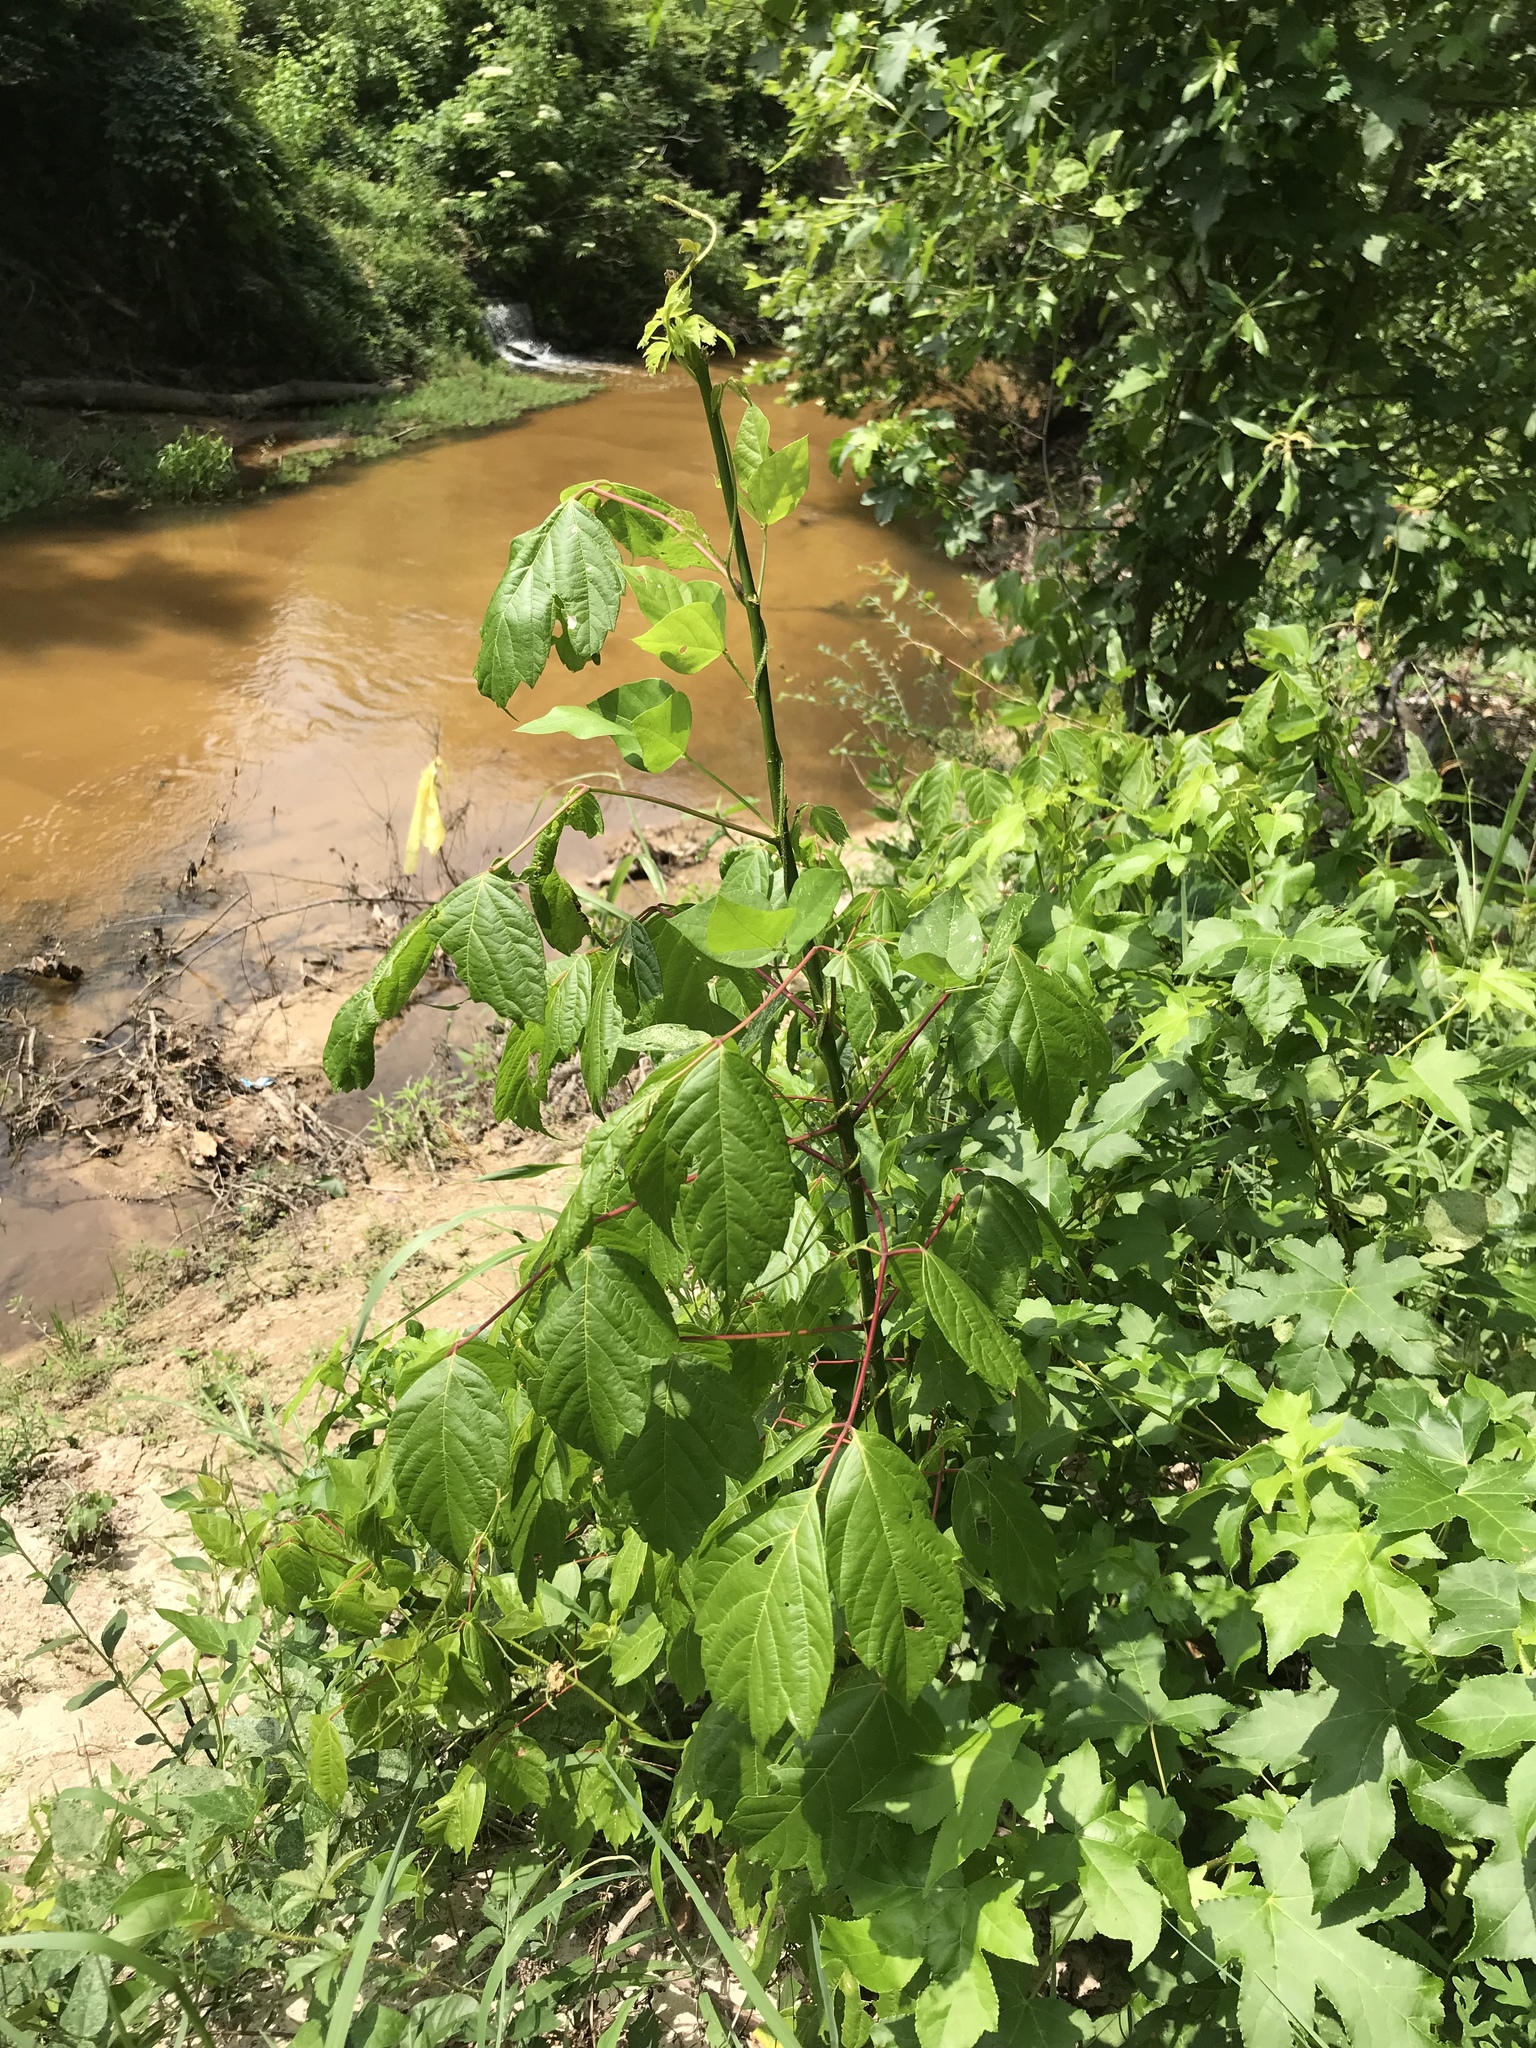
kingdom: Plantae
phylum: Tracheophyta
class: Magnoliopsida
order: Sapindales
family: Sapindaceae
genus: Acer
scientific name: Acer negundo
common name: Ashleaf maple
